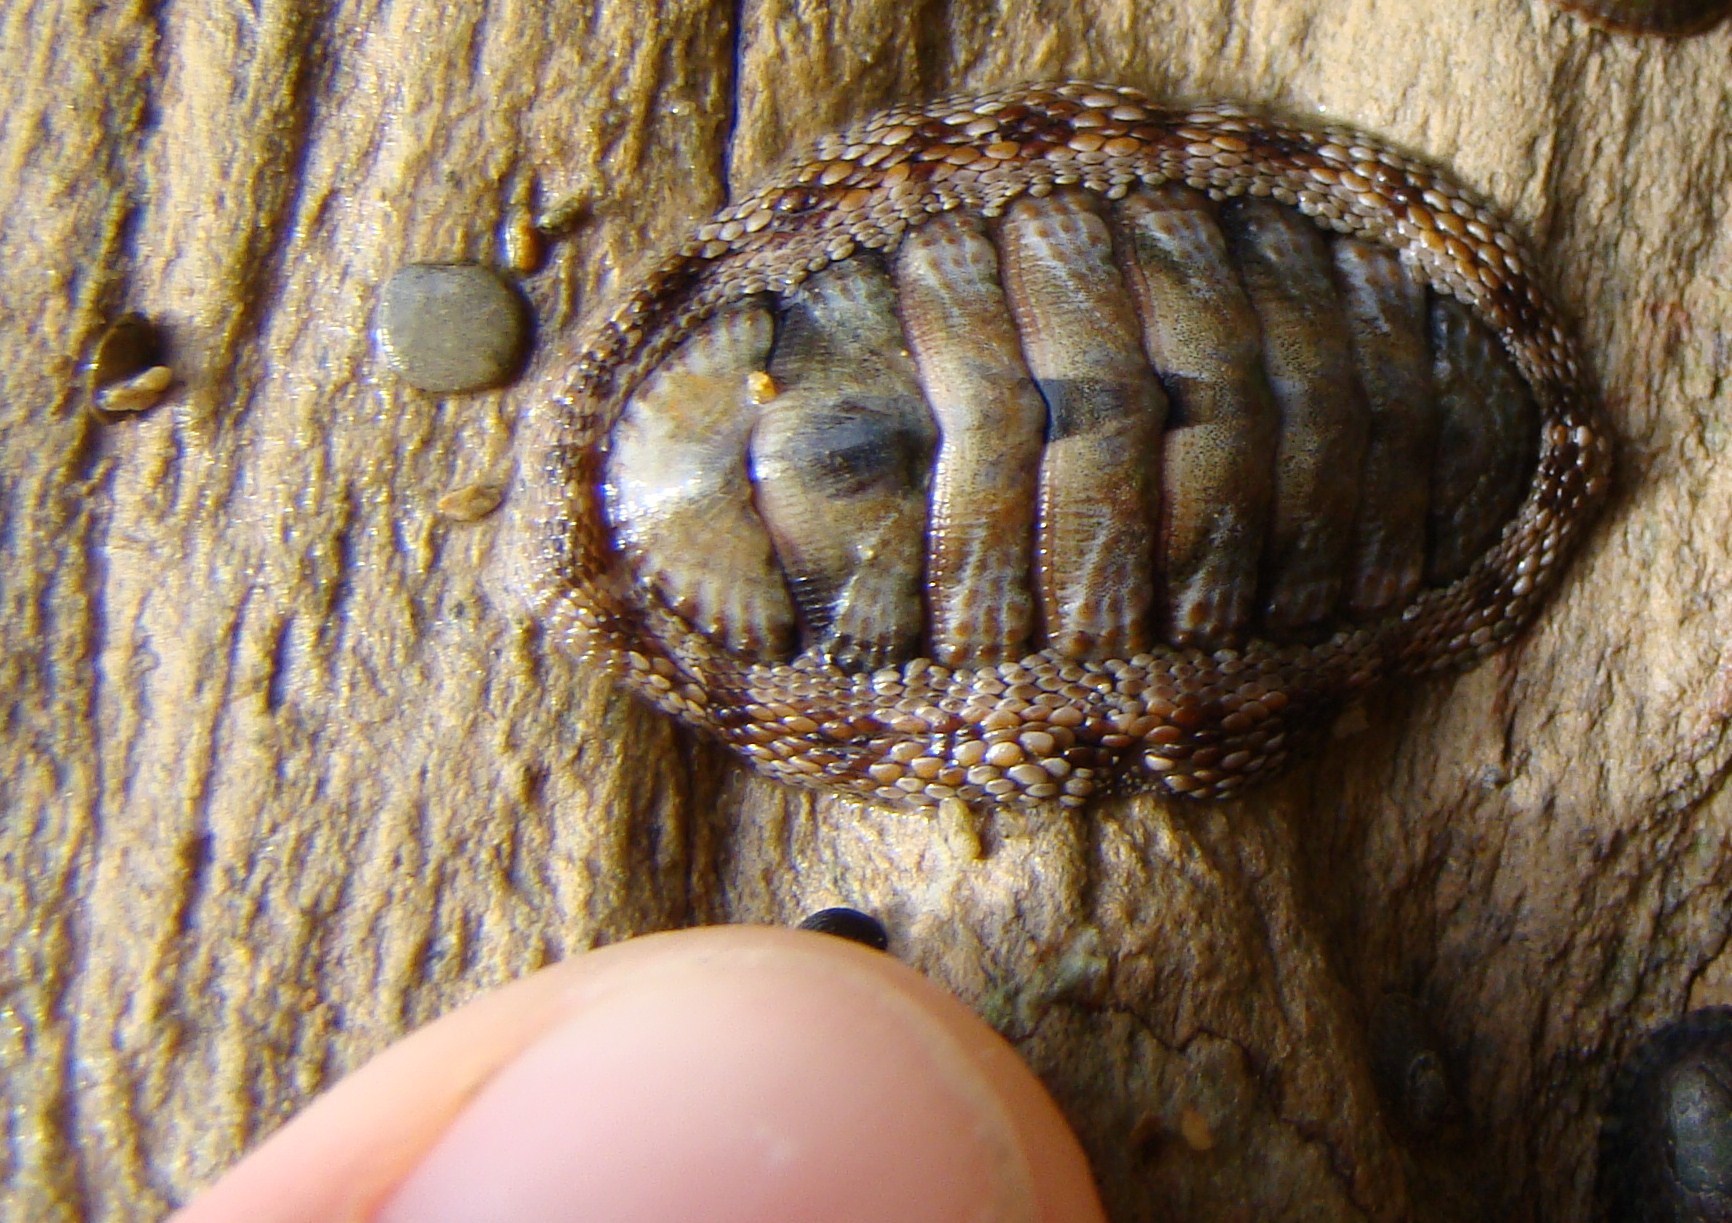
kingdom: Animalia
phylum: Mollusca
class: Polyplacophora
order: Chitonida
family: Chitonidae
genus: Sypharochiton
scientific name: Sypharochiton pelliserpentis
